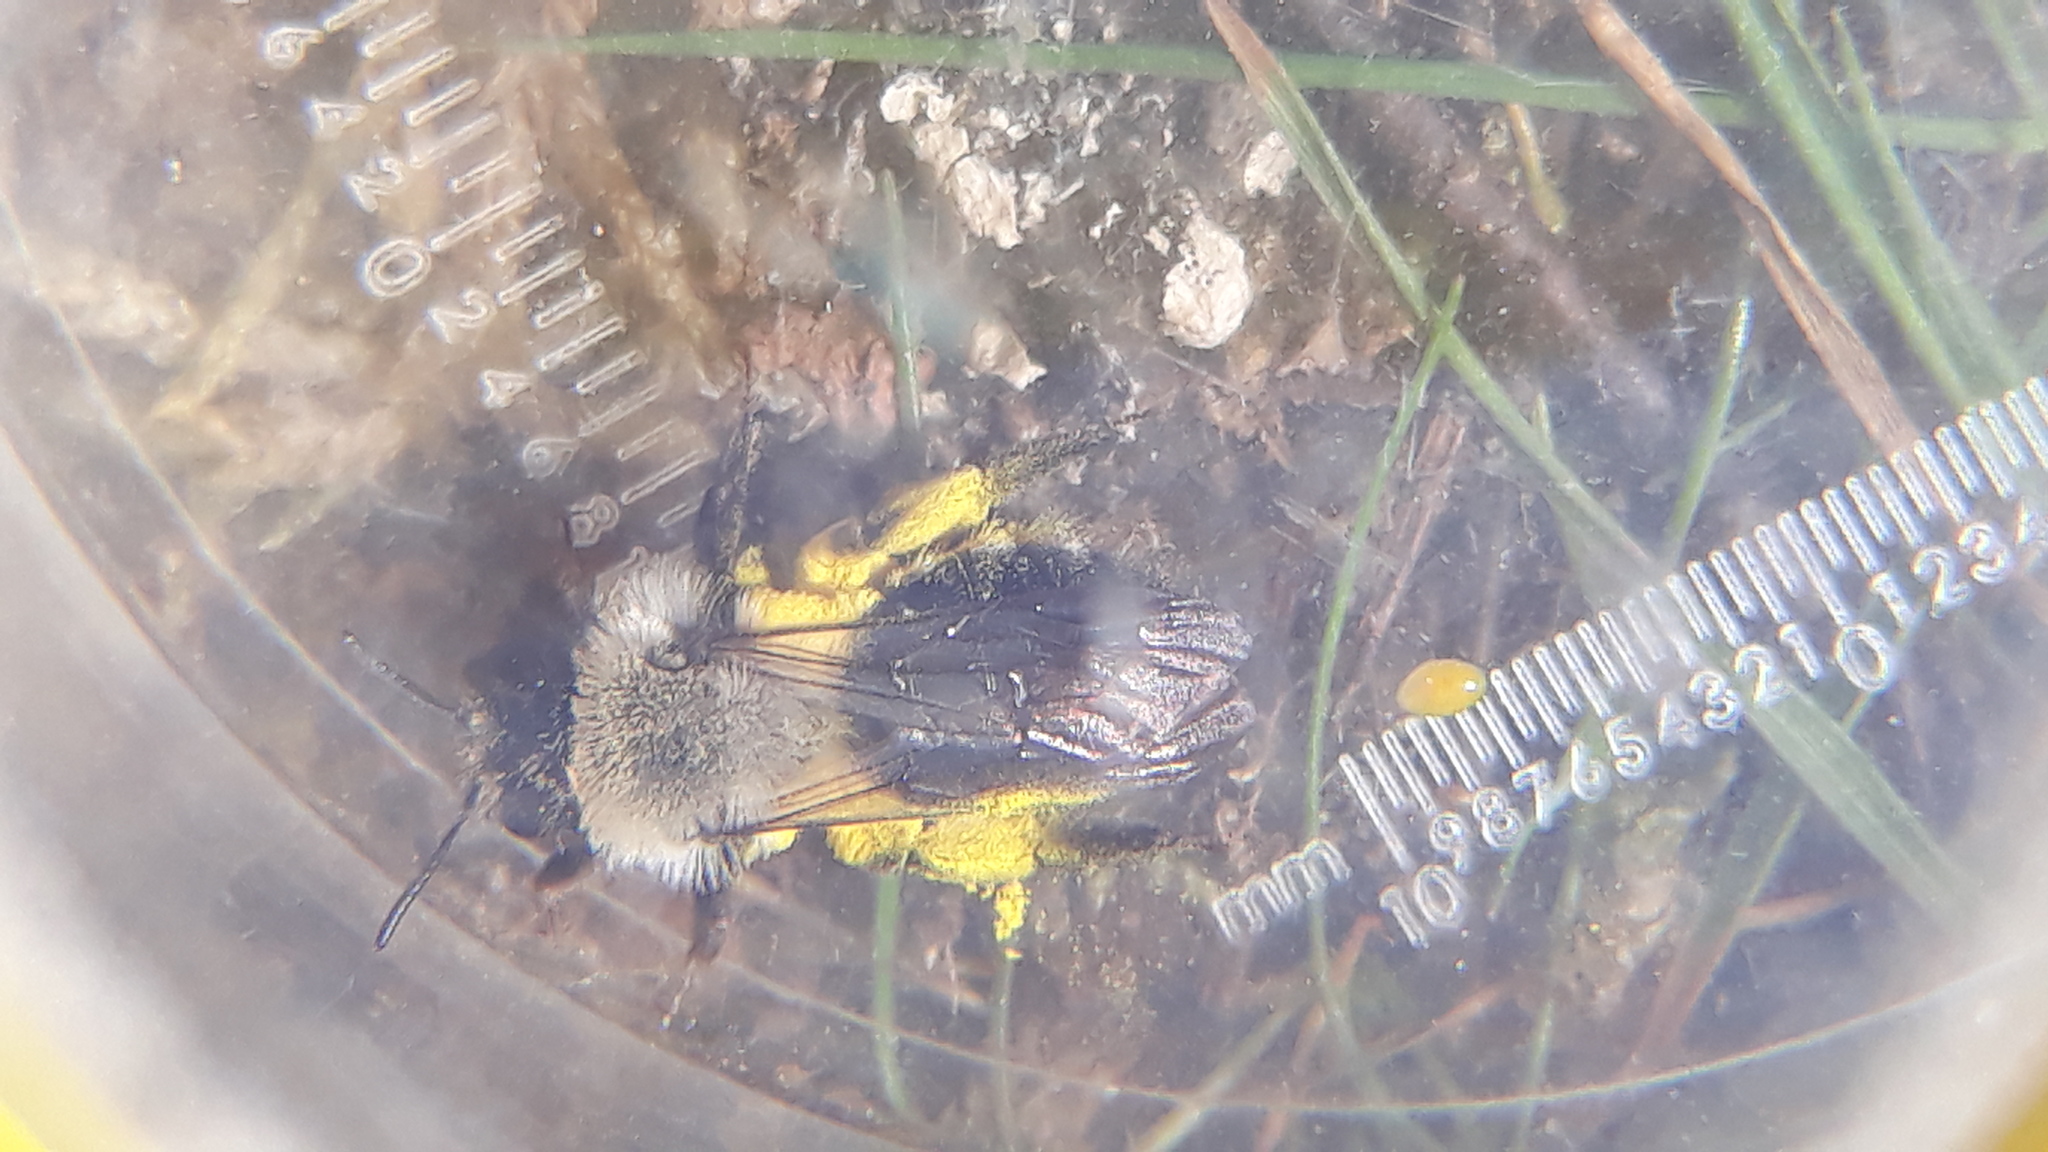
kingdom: Animalia
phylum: Arthropoda
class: Insecta
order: Hymenoptera
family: Andrenidae
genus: Andrena
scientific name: Andrena vaga
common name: Grey-backed mining bee
